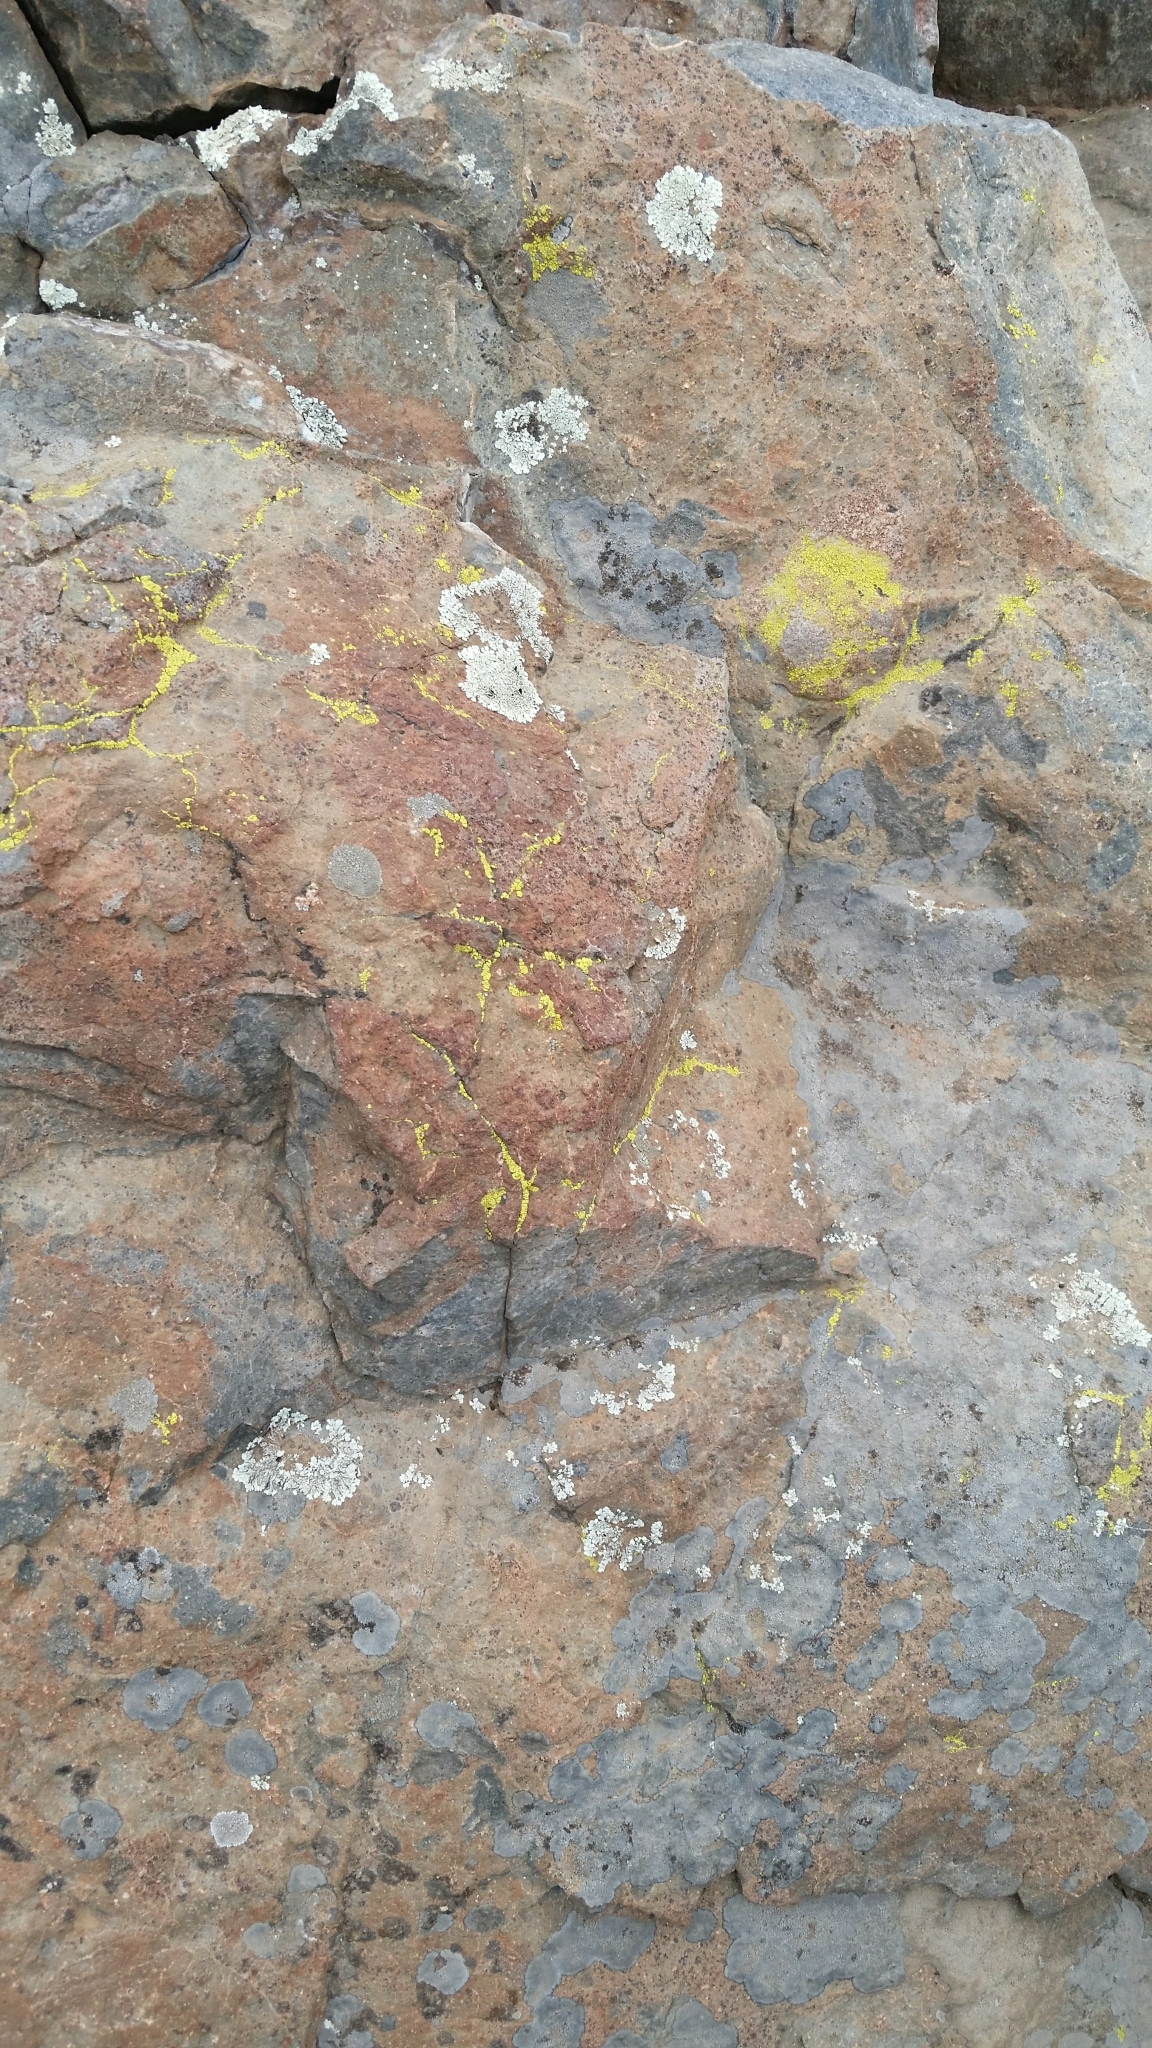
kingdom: Fungi
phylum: Ascomycota
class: Lecanoromycetes
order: Acarosporales
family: Acarosporaceae
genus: Acarospora
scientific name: Acarospora socialis
